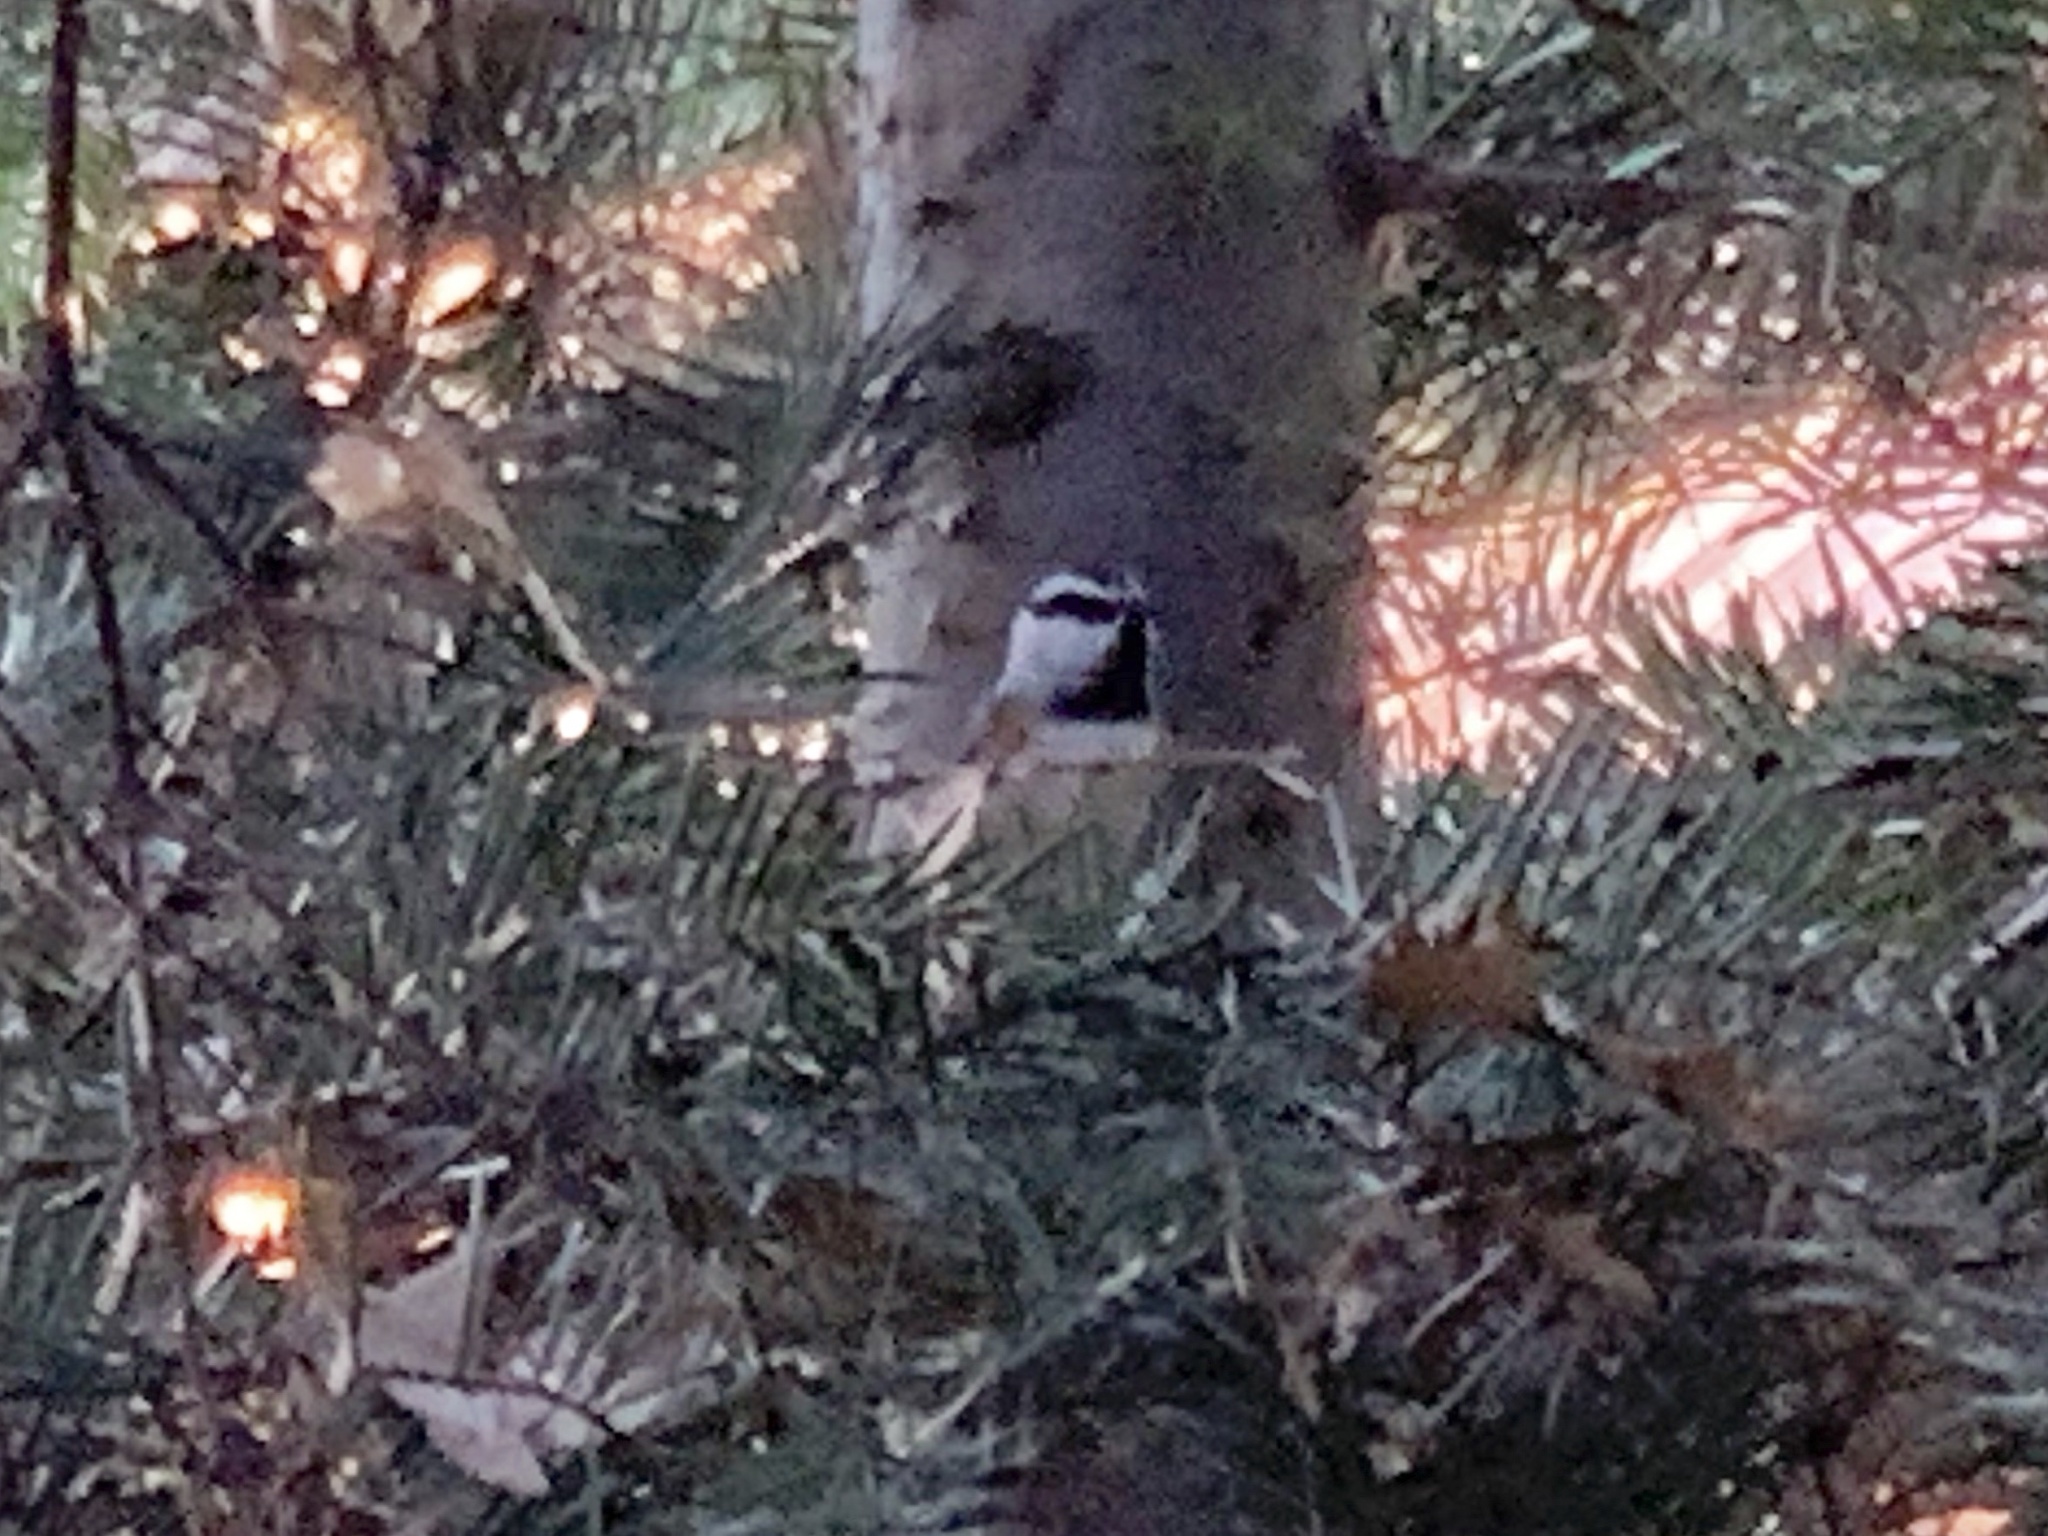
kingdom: Animalia
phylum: Chordata
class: Aves
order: Passeriformes
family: Paridae
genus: Poecile
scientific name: Poecile gambeli
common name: Mountain chickadee
